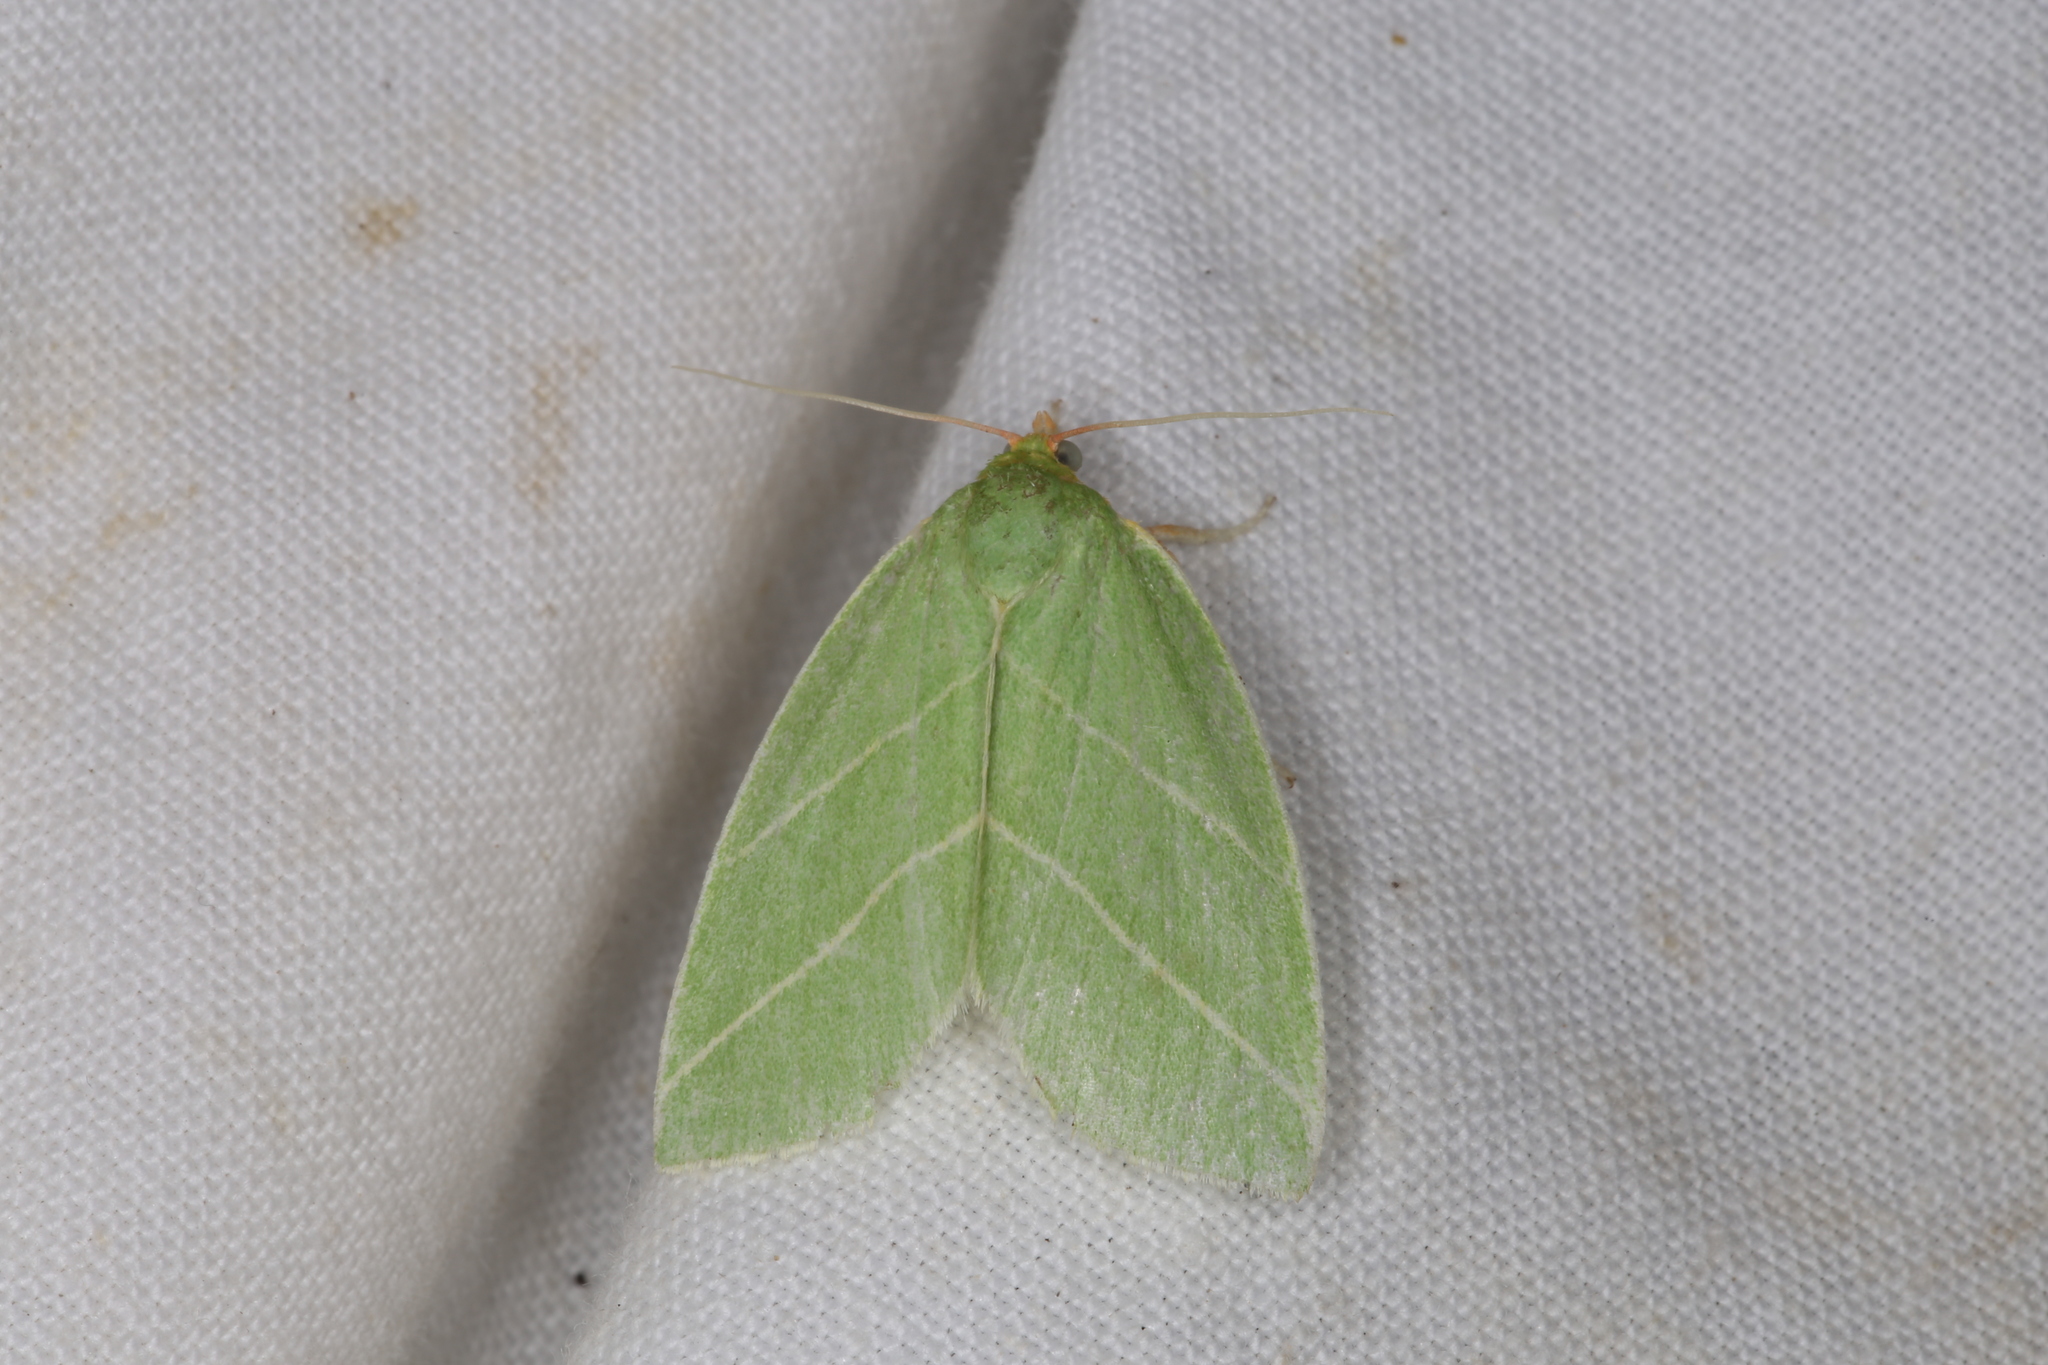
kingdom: Animalia
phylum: Arthropoda
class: Insecta
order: Lepidoptera
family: Nolidae
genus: Bena
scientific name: Bena bicolorana
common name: Scarce silver-lines
